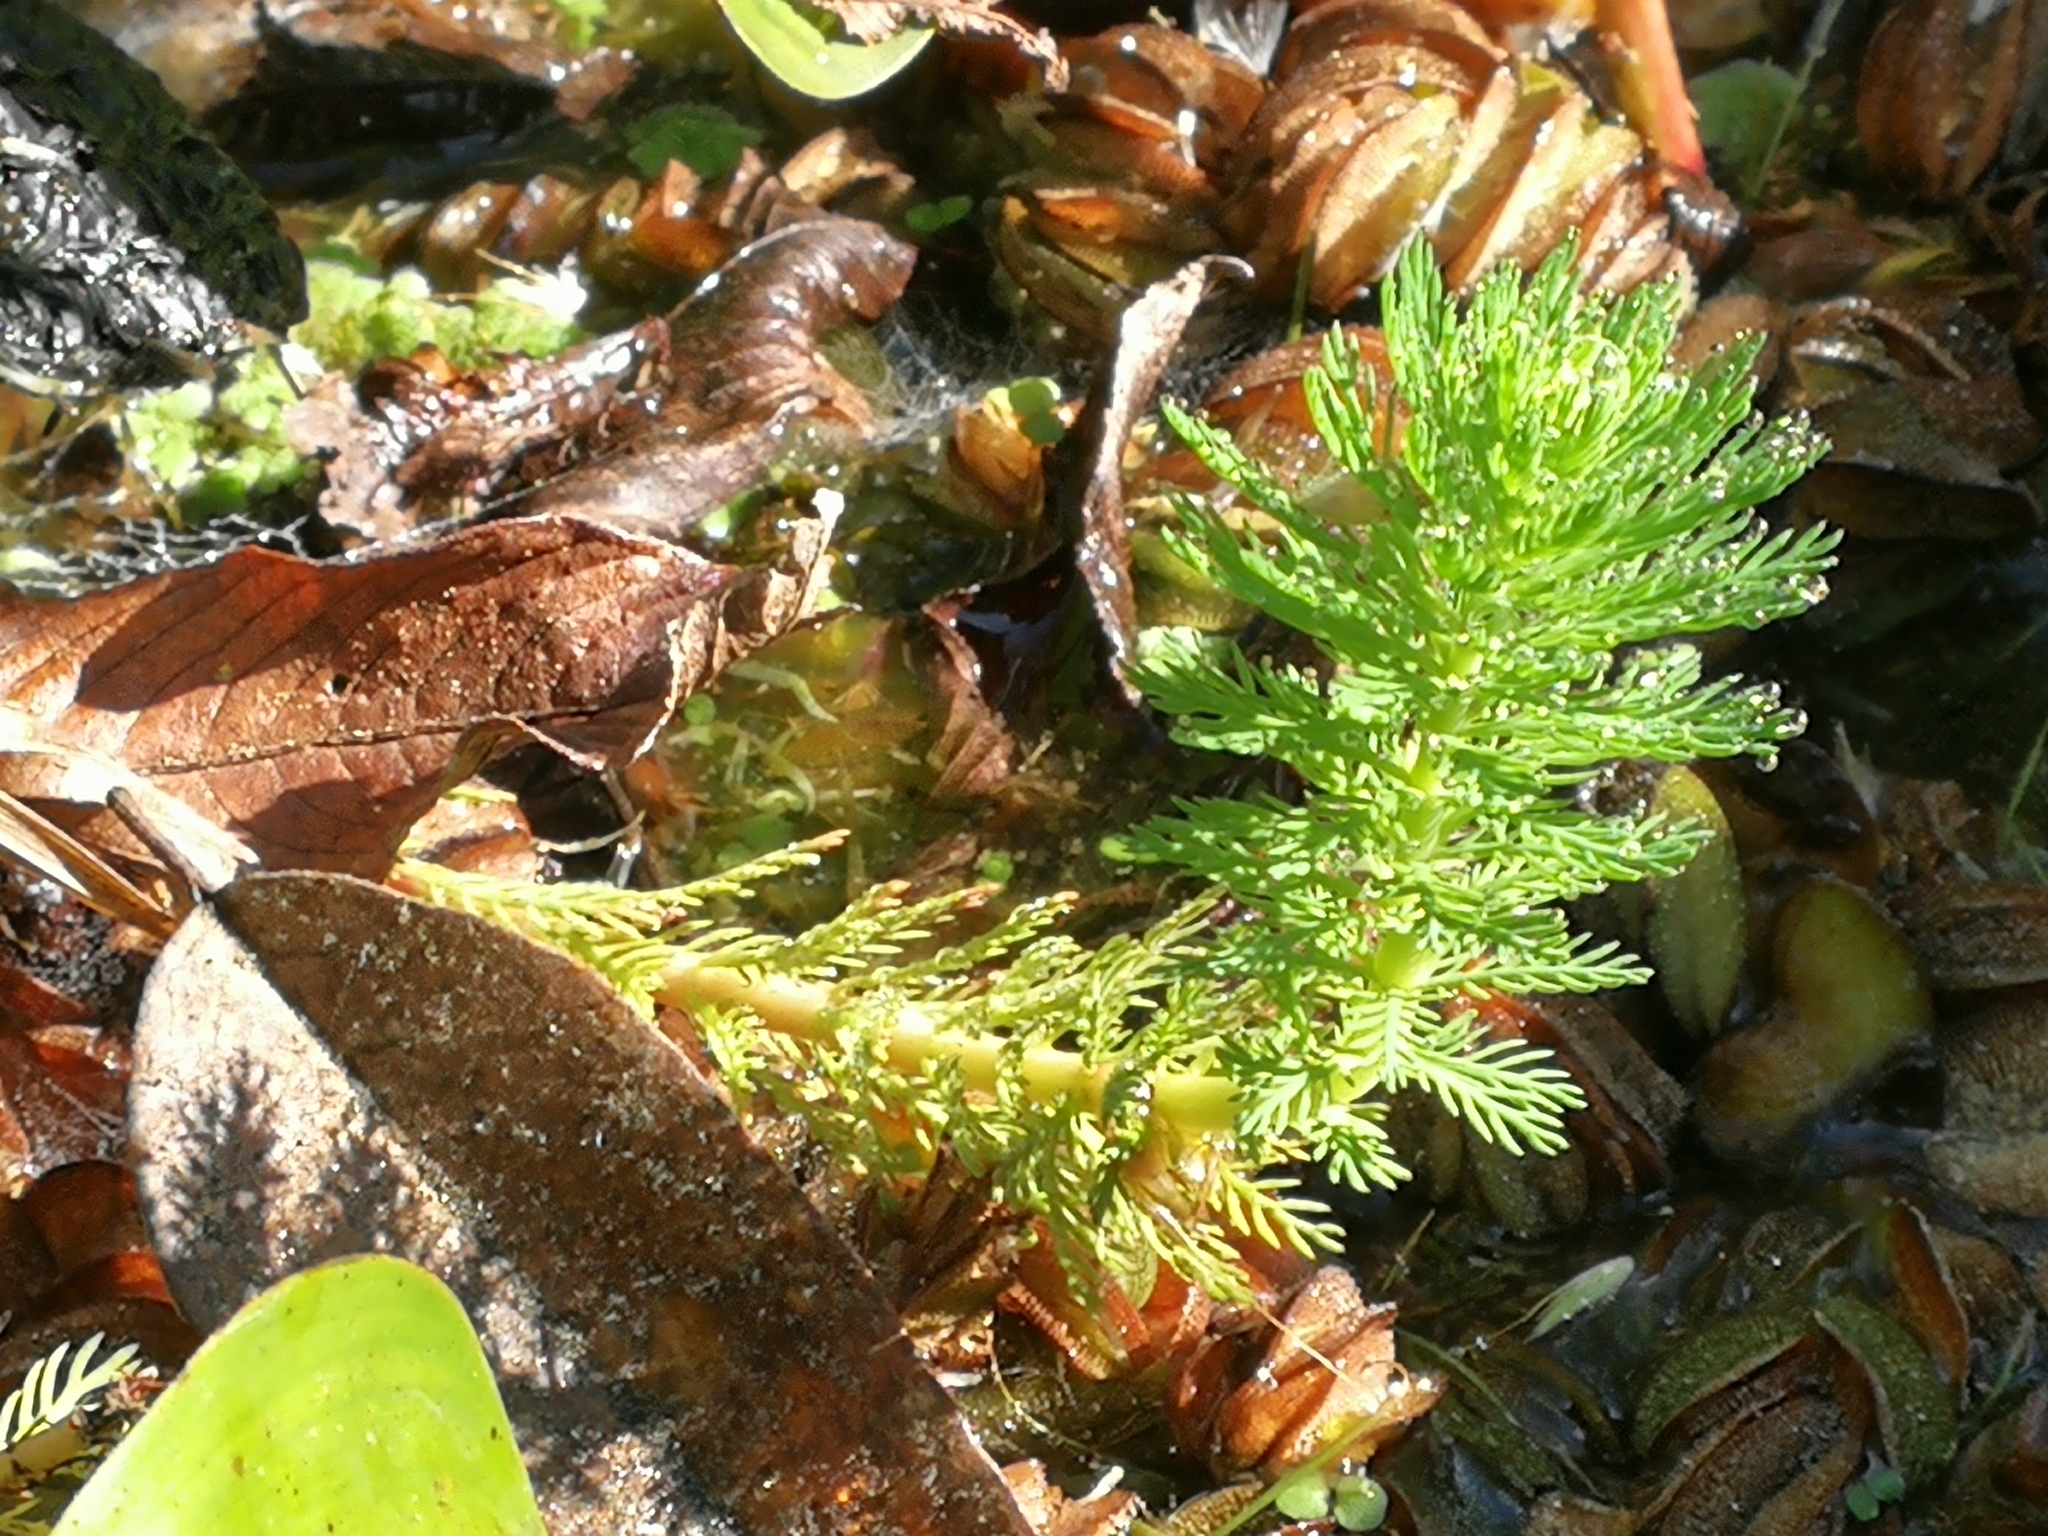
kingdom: Plantae
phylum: Tracheophyta
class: Magnoliopsida
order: Saxifragales
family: Haloragaceae
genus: Myriophyllum
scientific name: Myriophyllum aquaticum
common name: Parrot's feather
